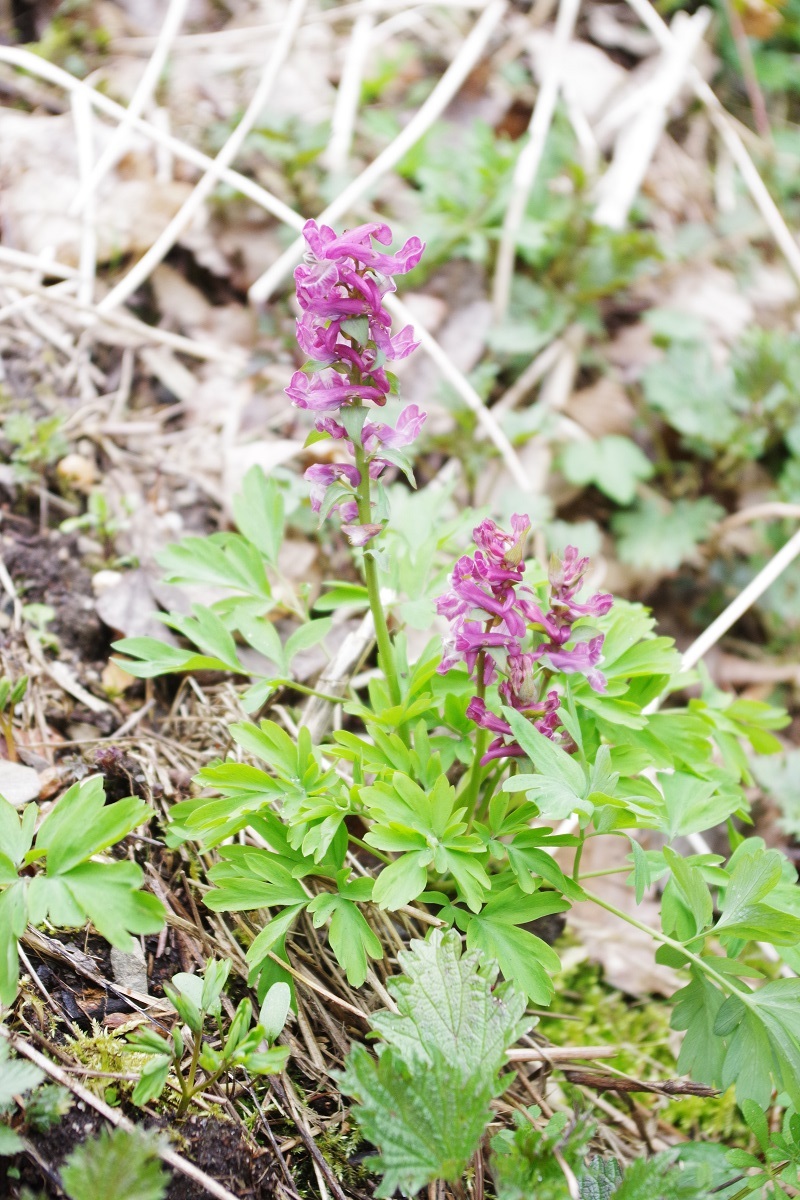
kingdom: Plantae
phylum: Tracheophyta
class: Magnoliopsida
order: Ranunculales
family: Papaveraceae
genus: Corydalis
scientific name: Corydalis cava
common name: Hollowroot
